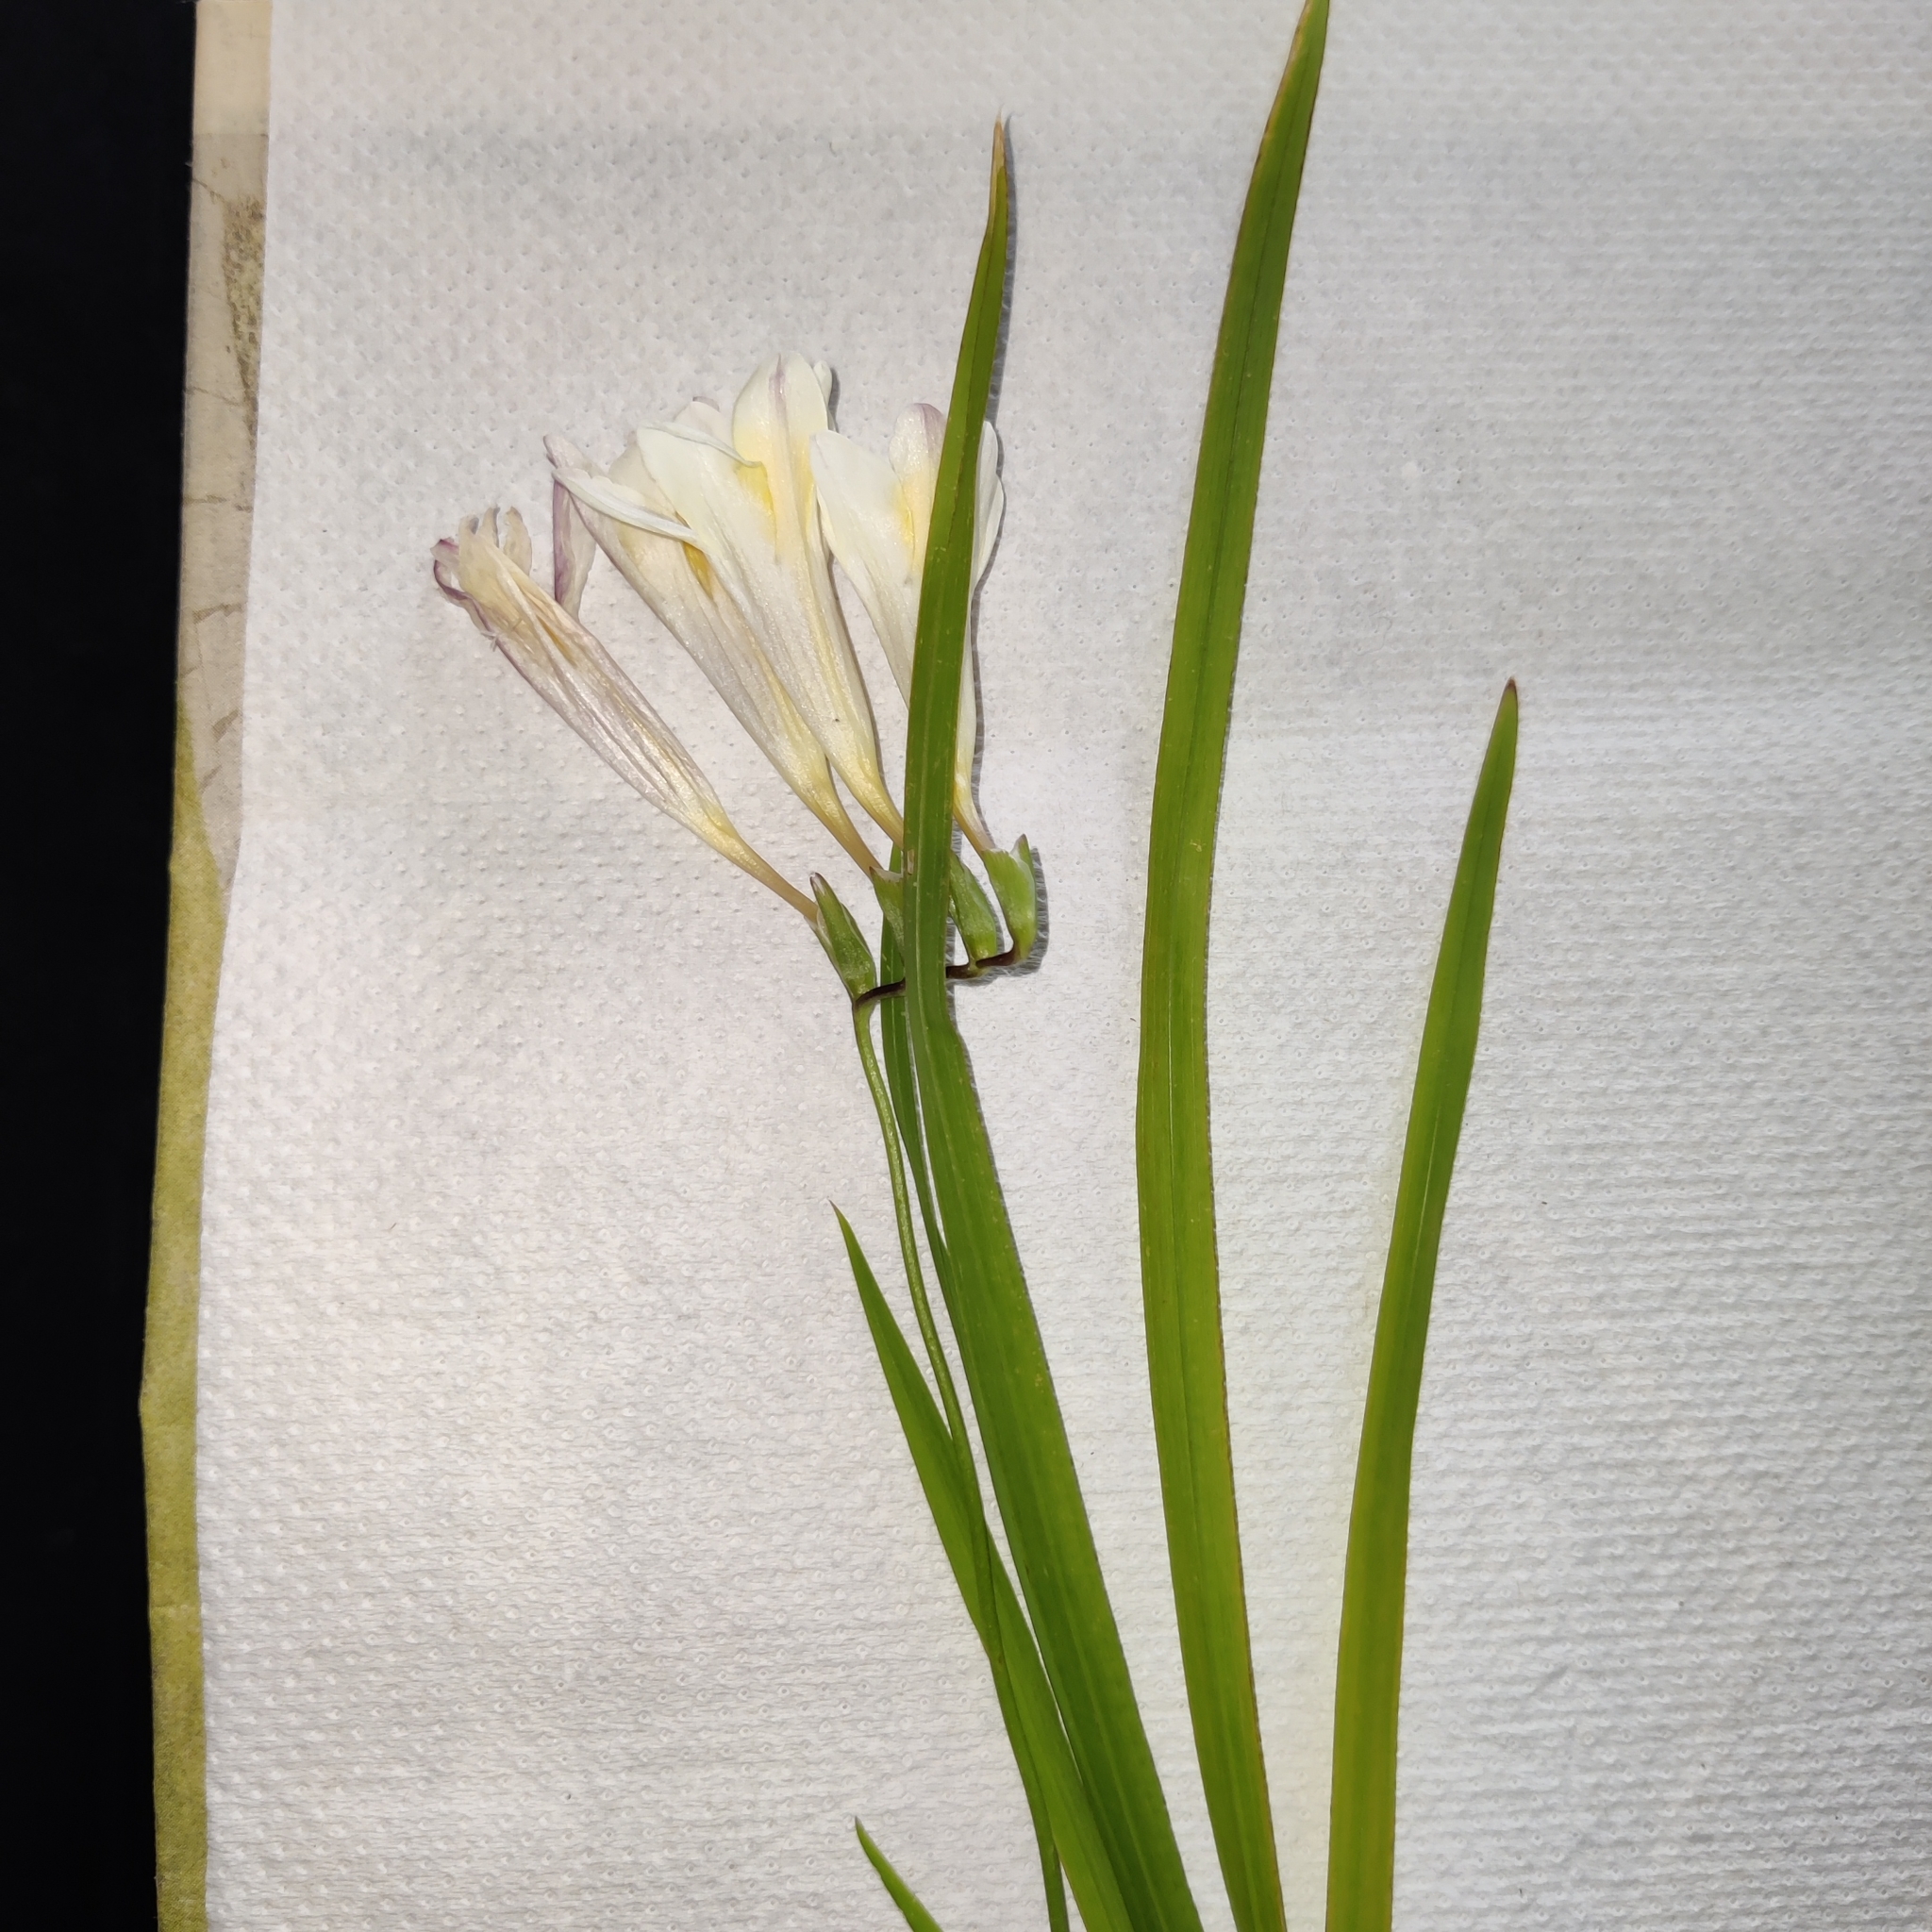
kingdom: Plantae
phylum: Tracheophyta
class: Liliopsida
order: Asparagales
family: Iridaceae
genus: Freesia
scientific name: Freesia leichtlinii
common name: Freesia
